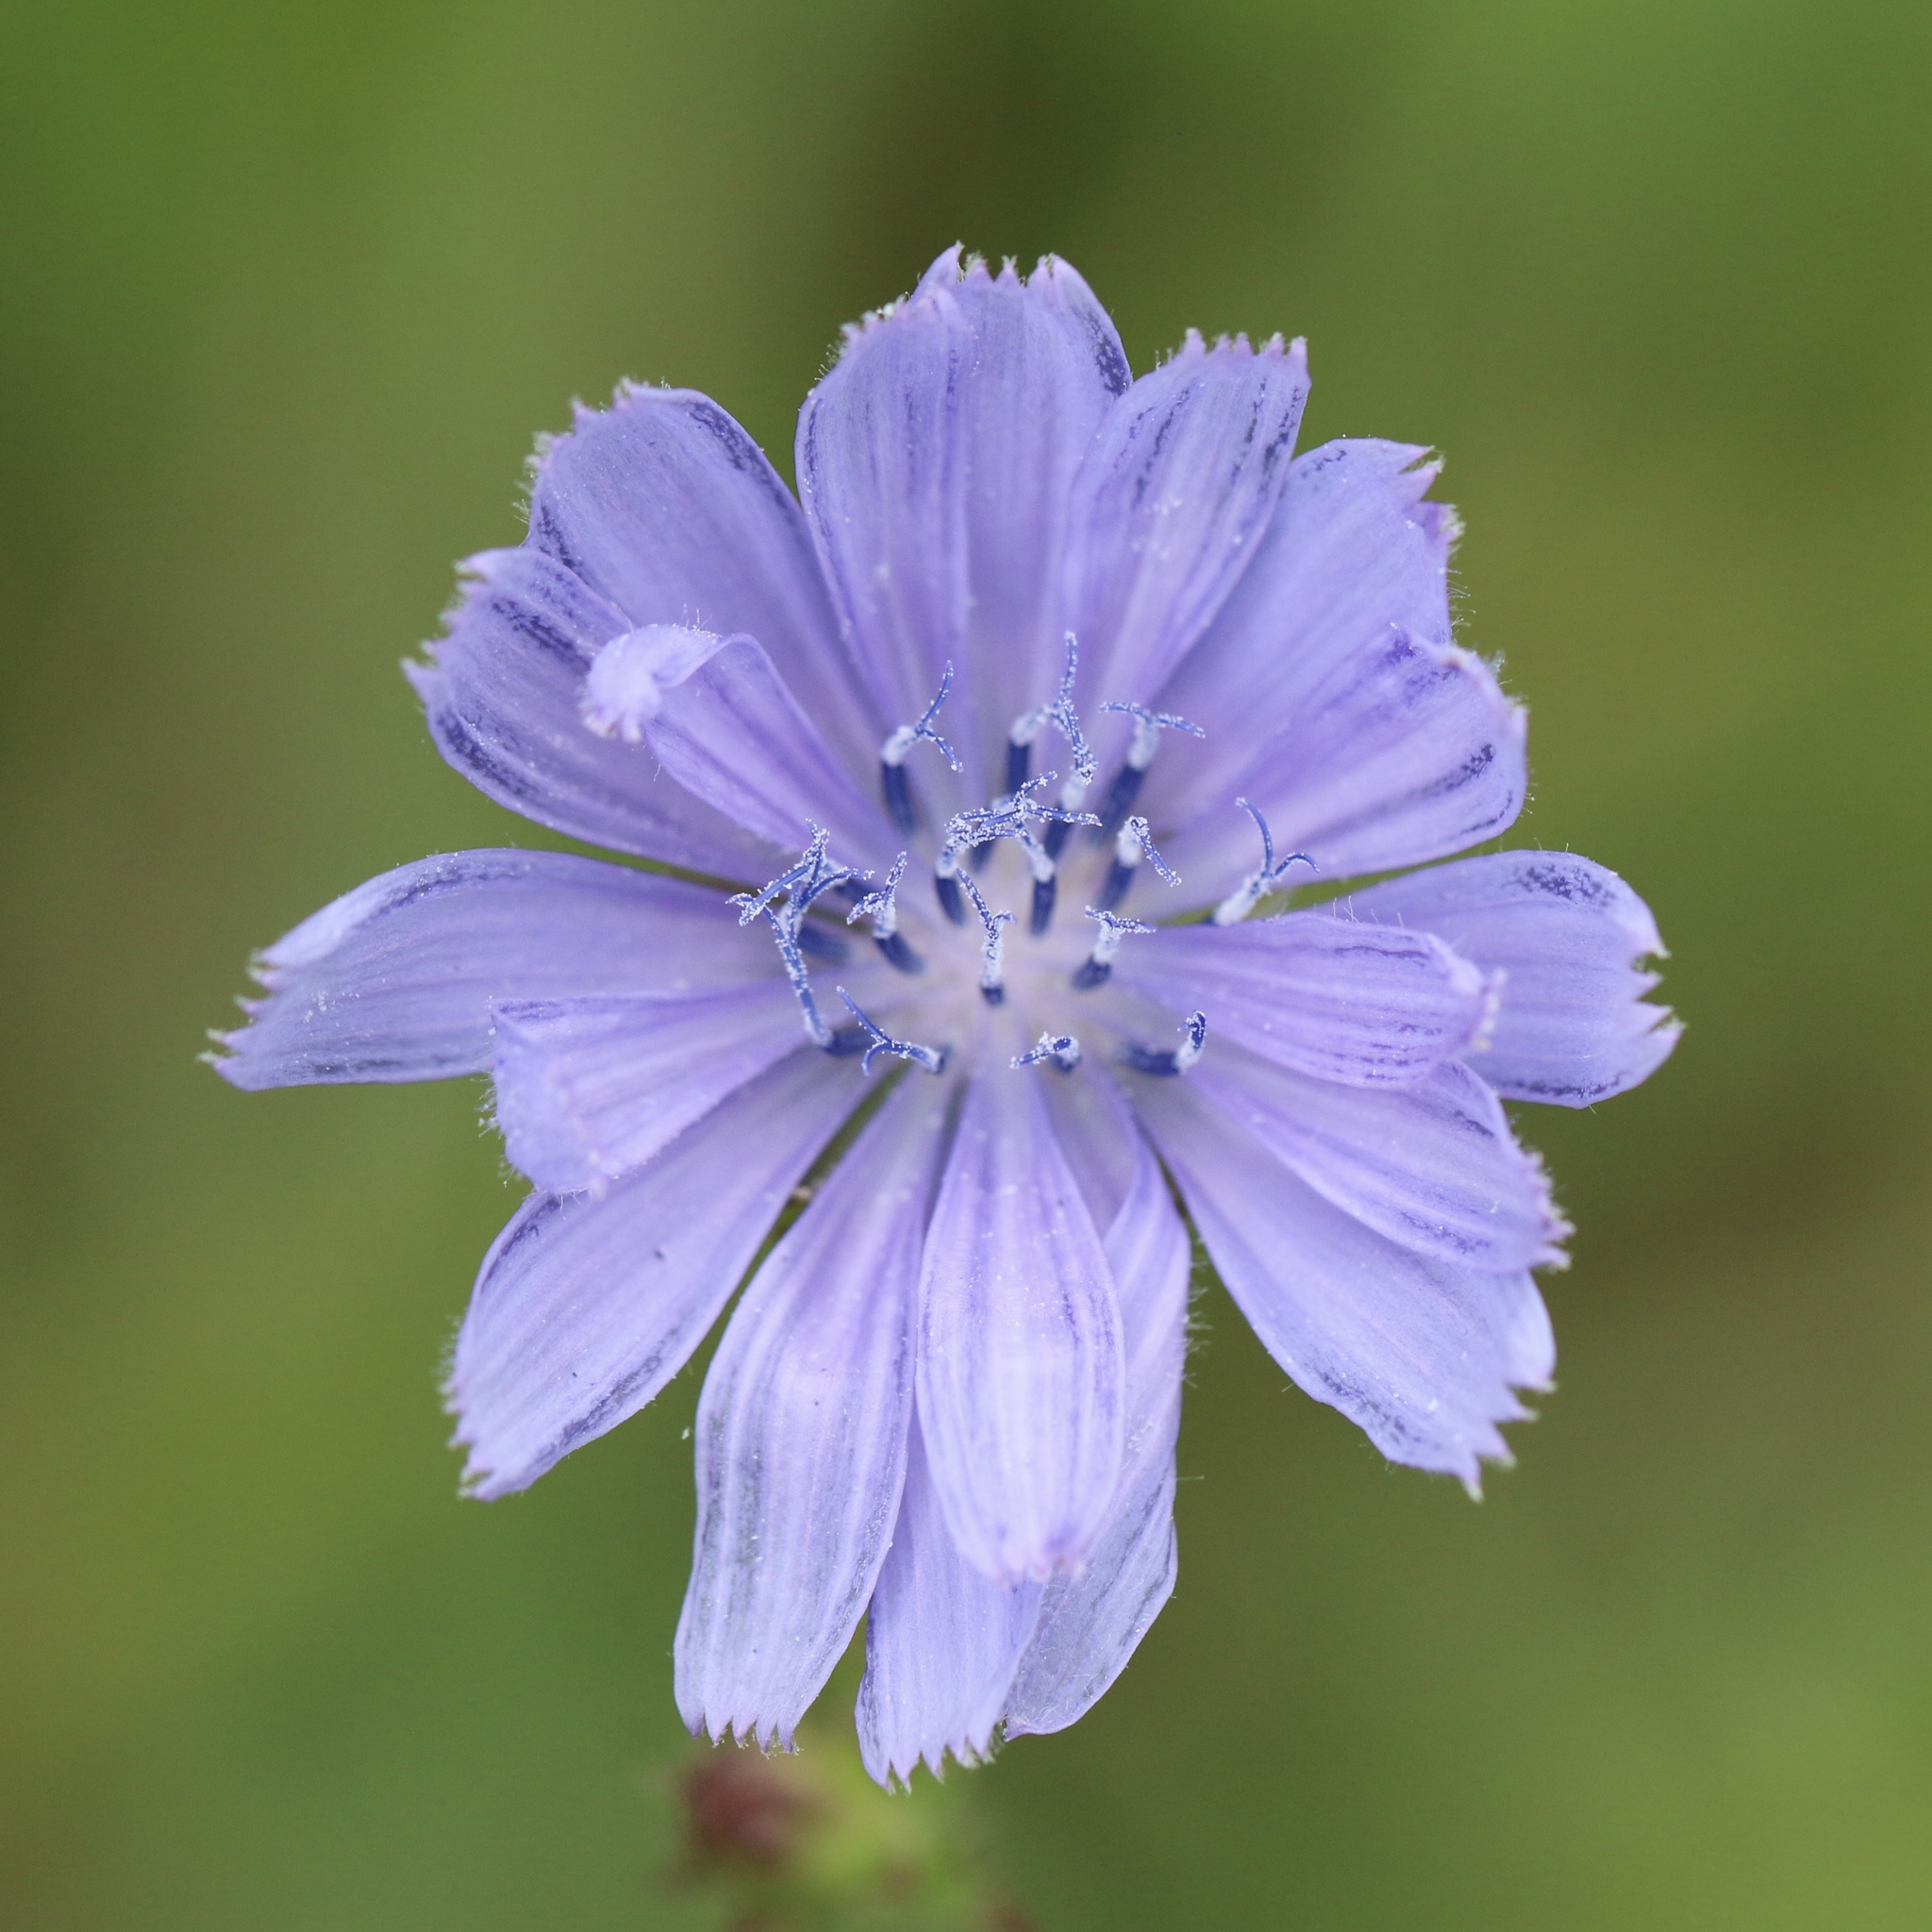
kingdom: Plantae
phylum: Tracheophyta
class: Magnoliopsida
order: Asterales
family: Asteraceae
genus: Cichorium
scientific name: Cichorium intybus
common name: Chicory
